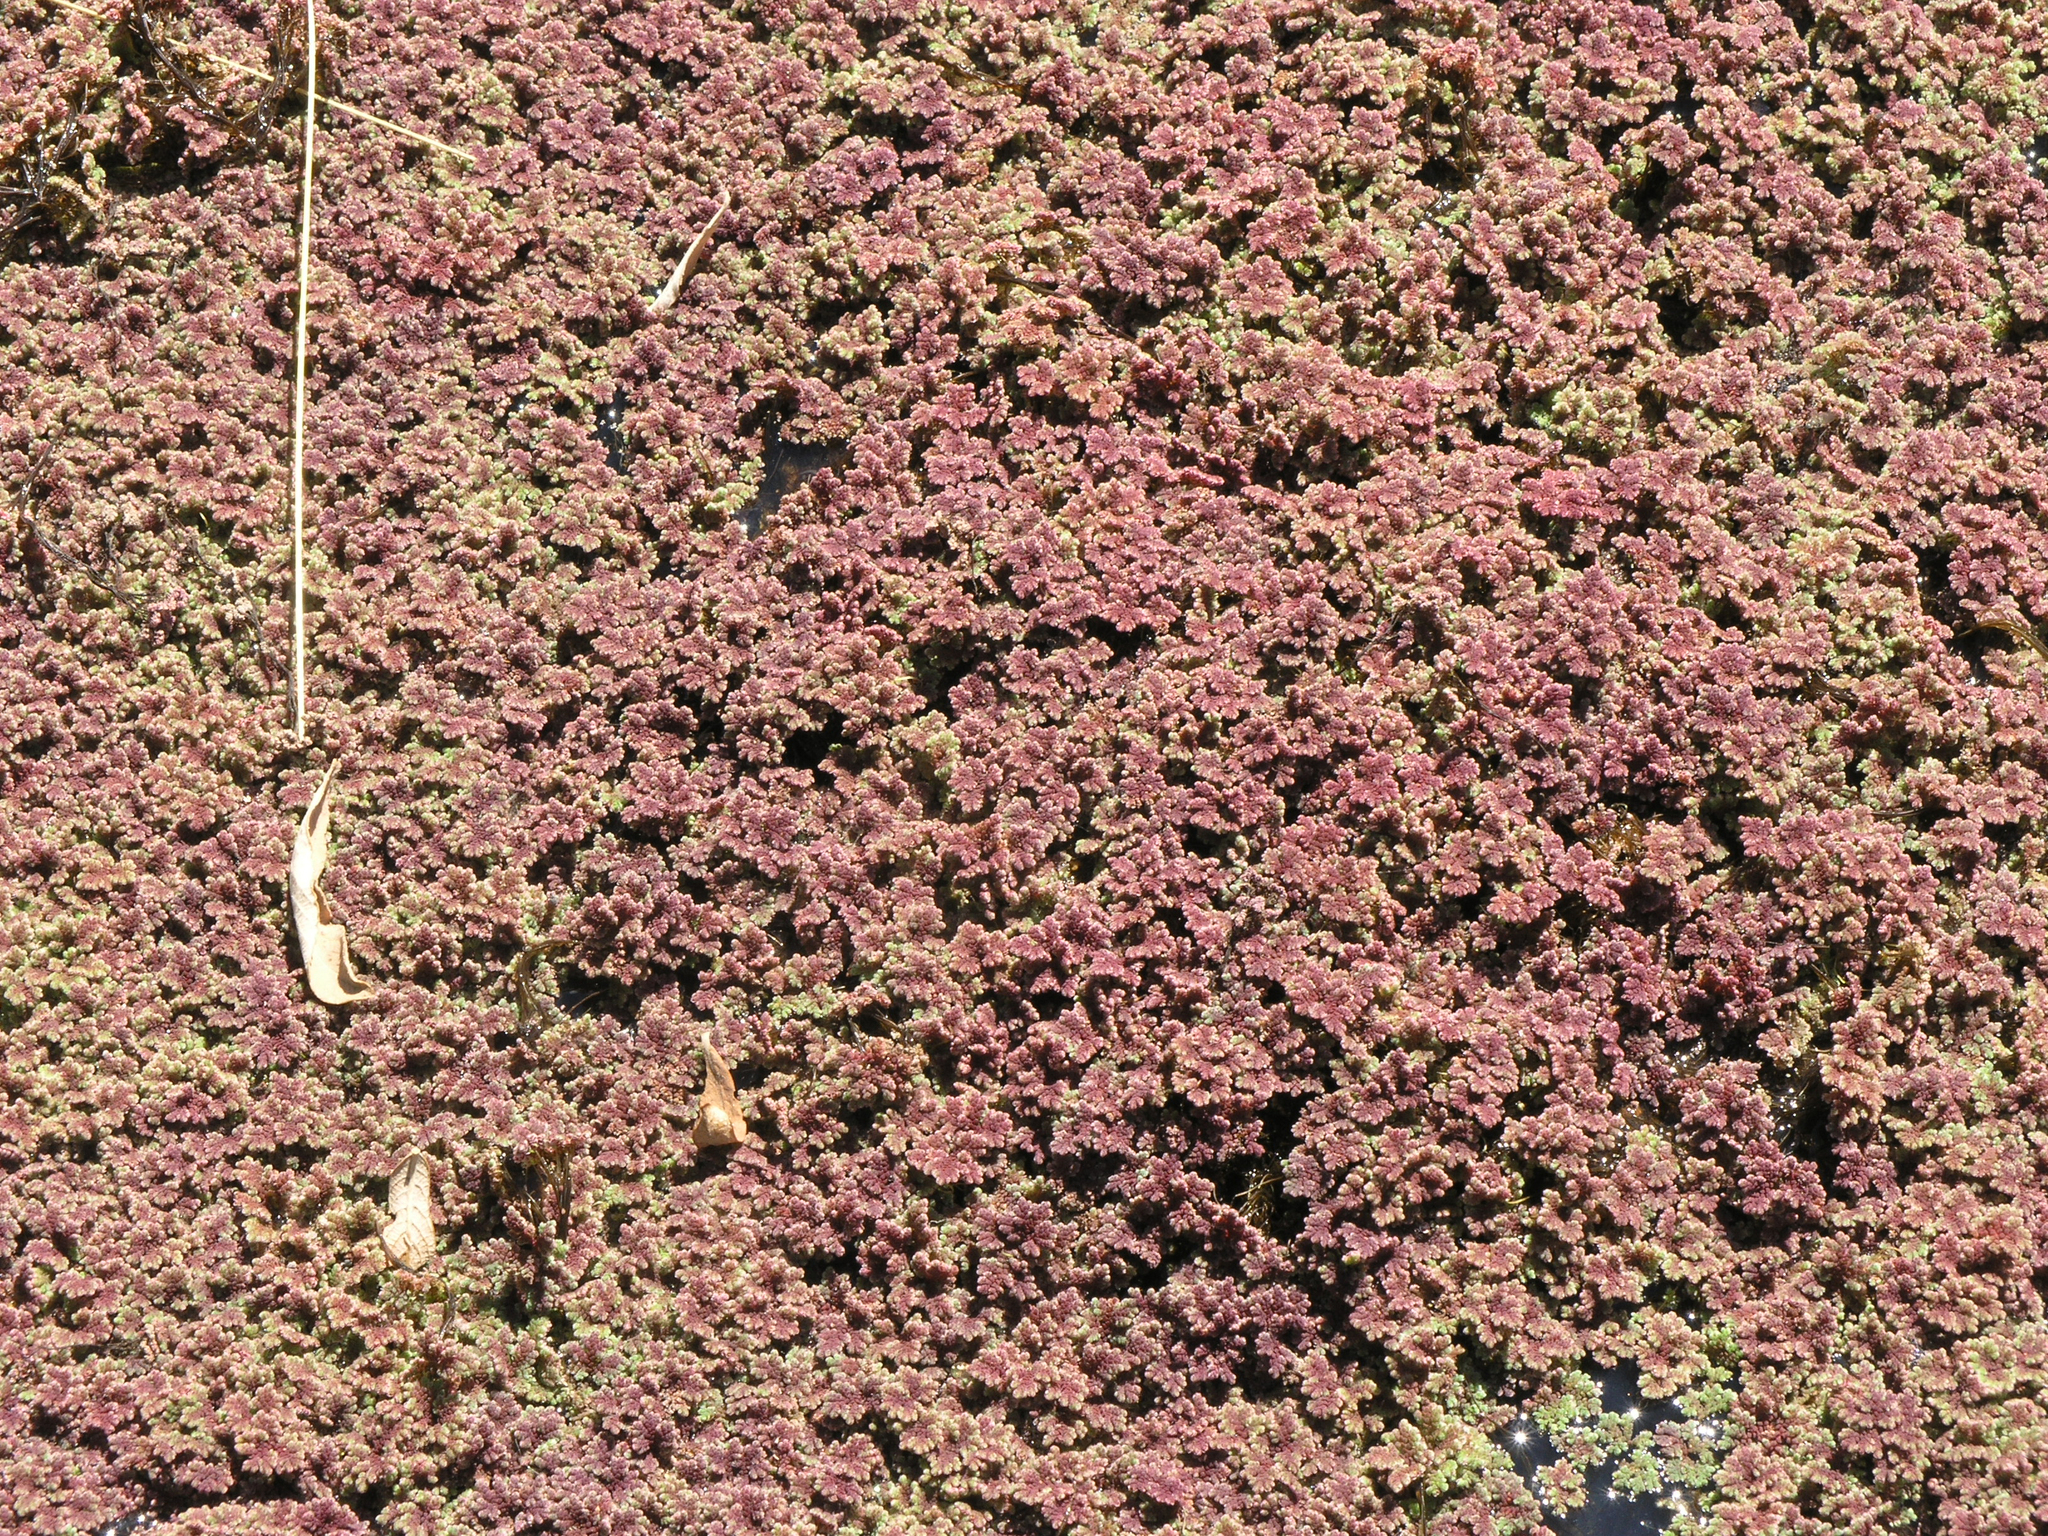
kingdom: Plantae
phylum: Tracheophyta
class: Polypodiopsida
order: Salviniales
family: Salviniaceae
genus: Azolla
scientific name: Azolla filiculoides
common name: Water fern
